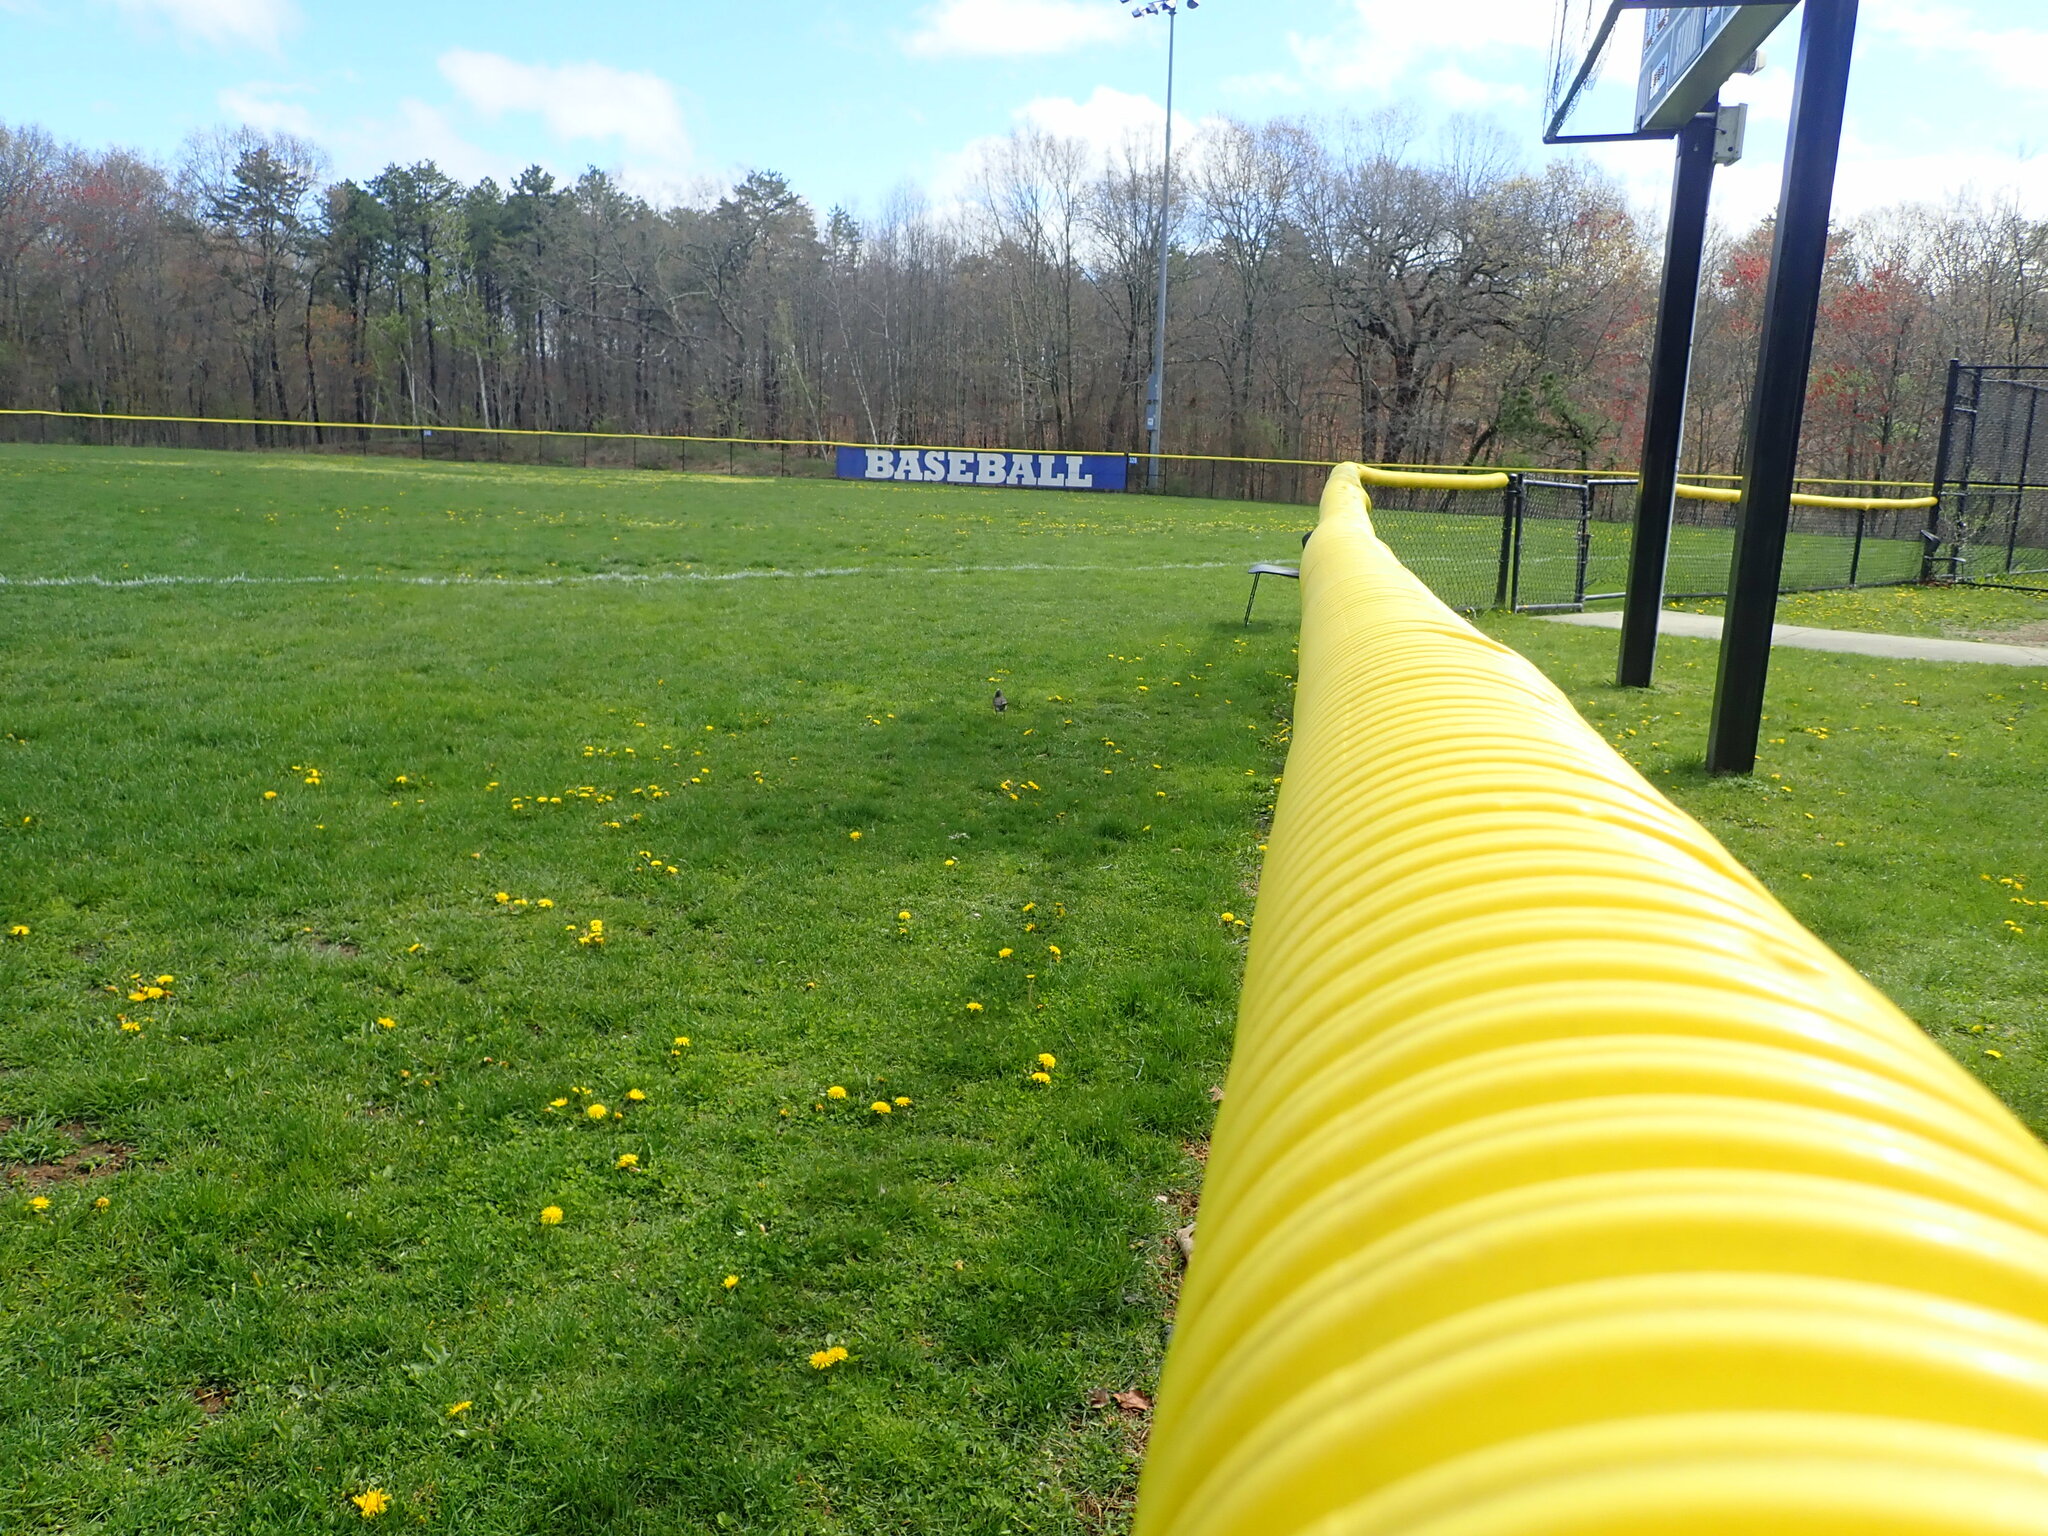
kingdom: Animalia
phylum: Chordata
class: Aves
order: Passeriformes
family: Turdidae
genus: Turdus
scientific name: Turdus migratorius
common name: American robin
